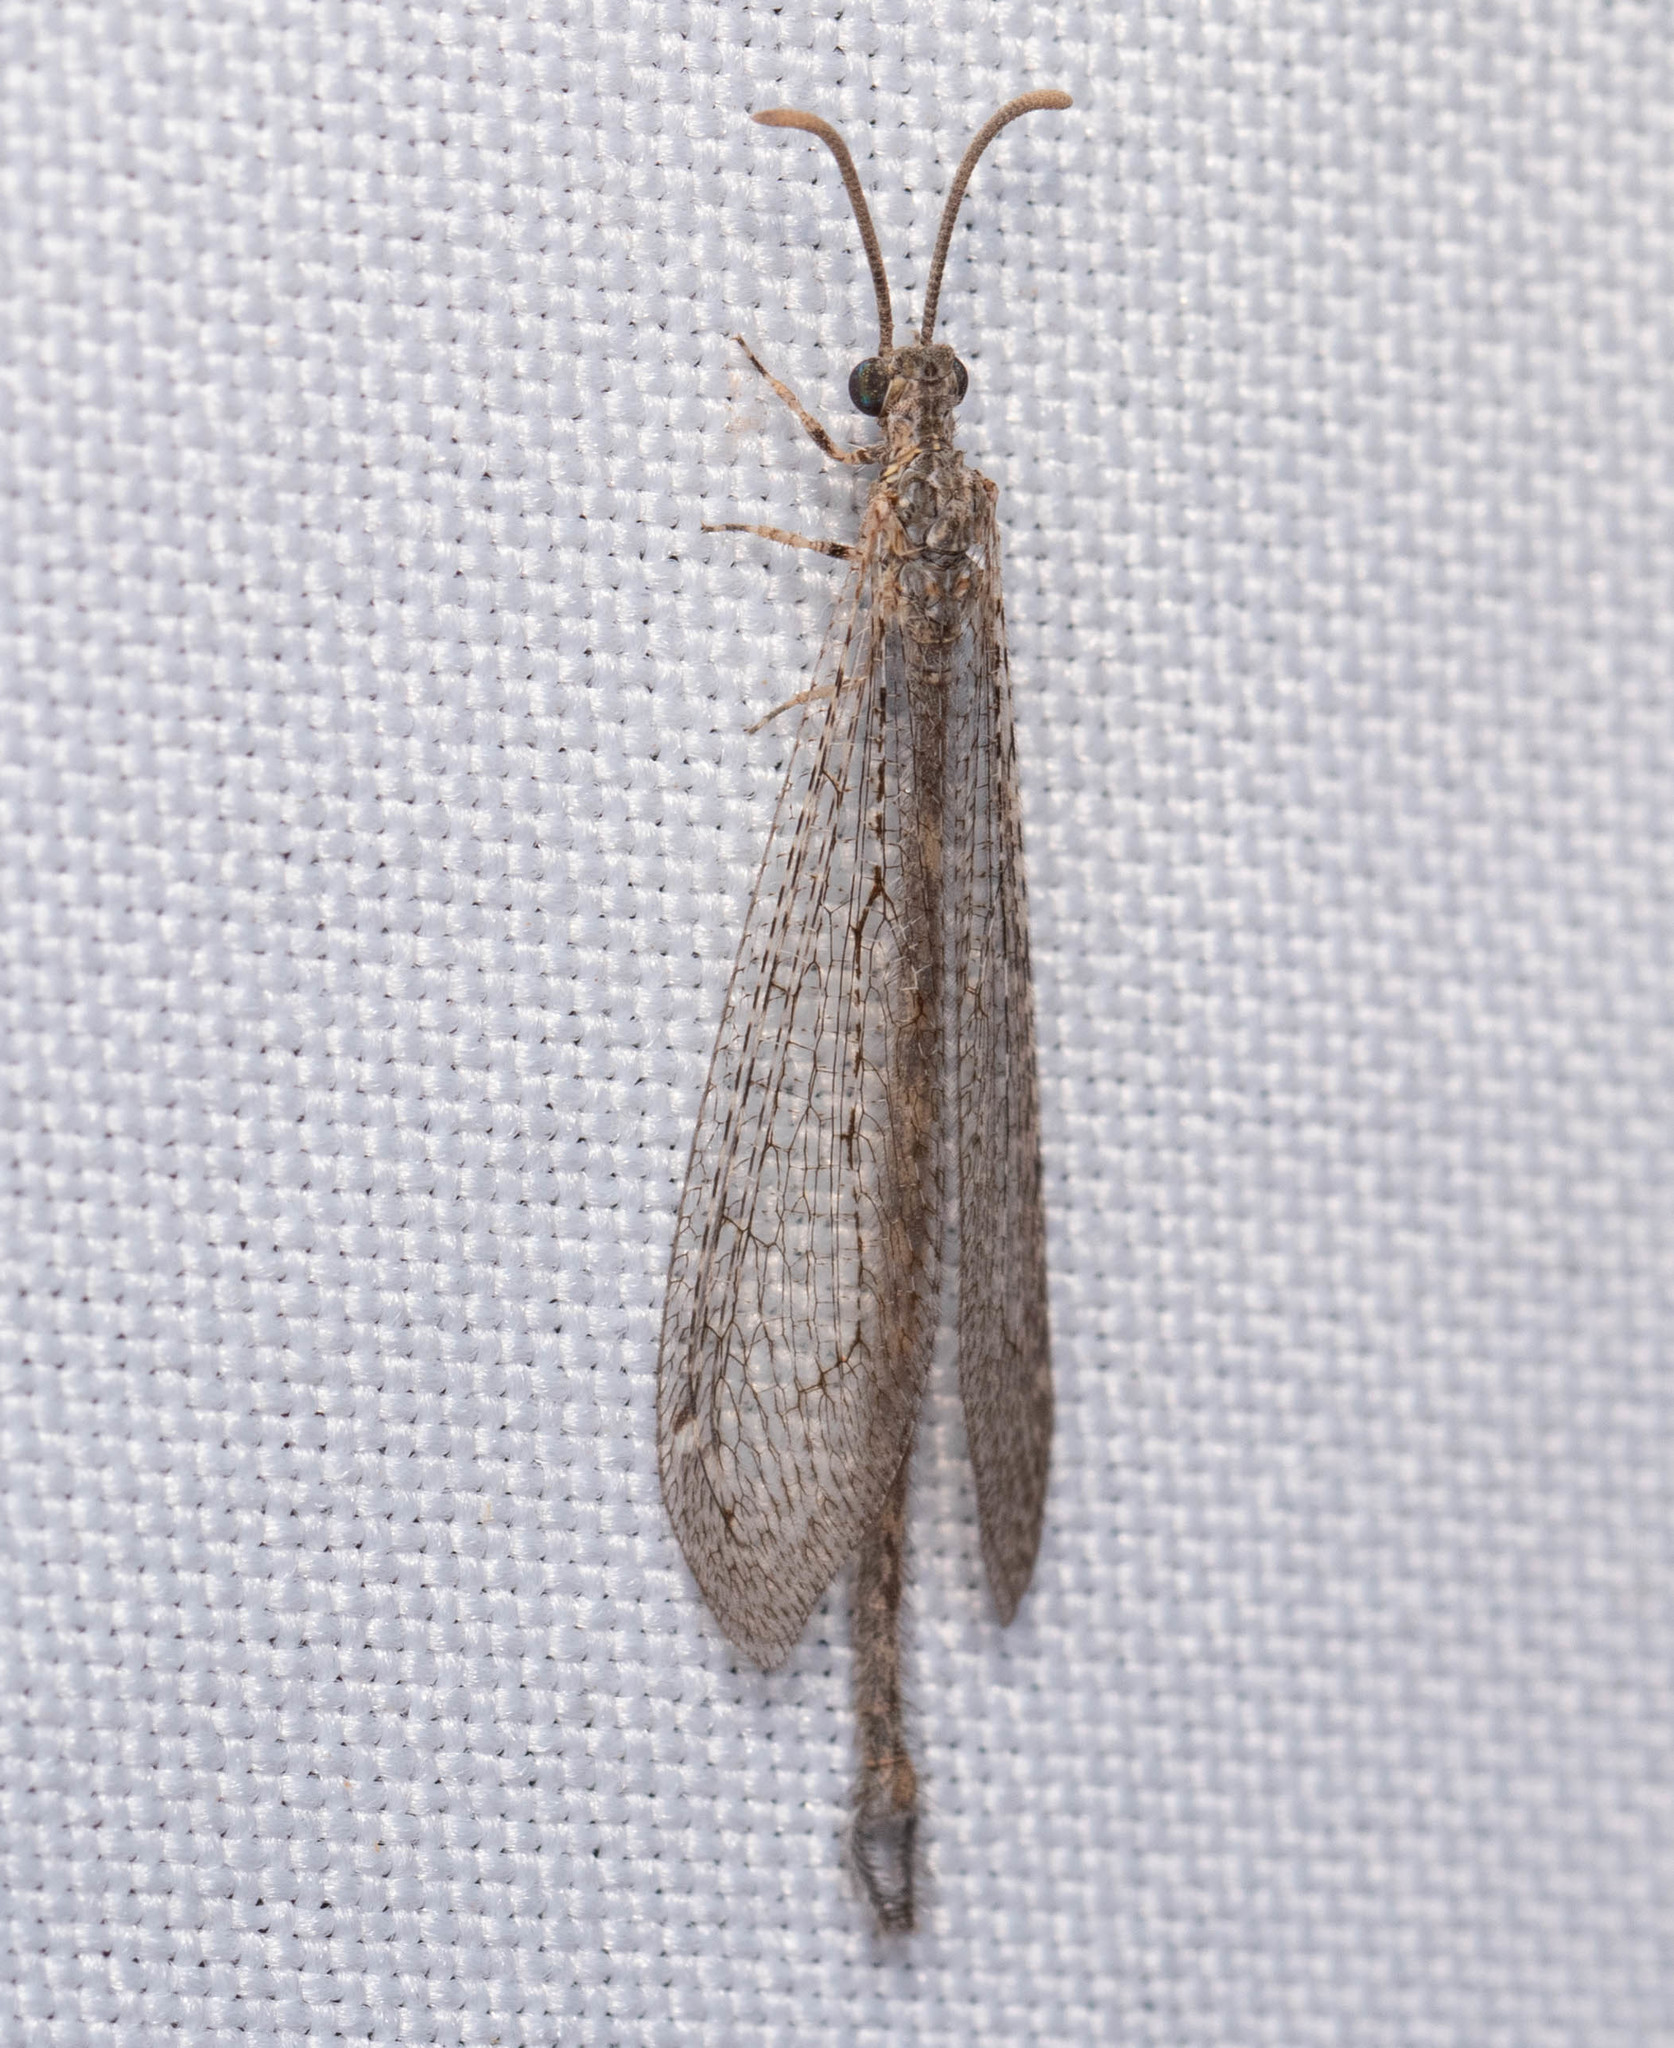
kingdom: Animalia
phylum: Arthropoda
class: Insecta
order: Neuroptera
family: Myrmeleontidae
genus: Atricholeon
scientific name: Atricholeon tuberculatus
